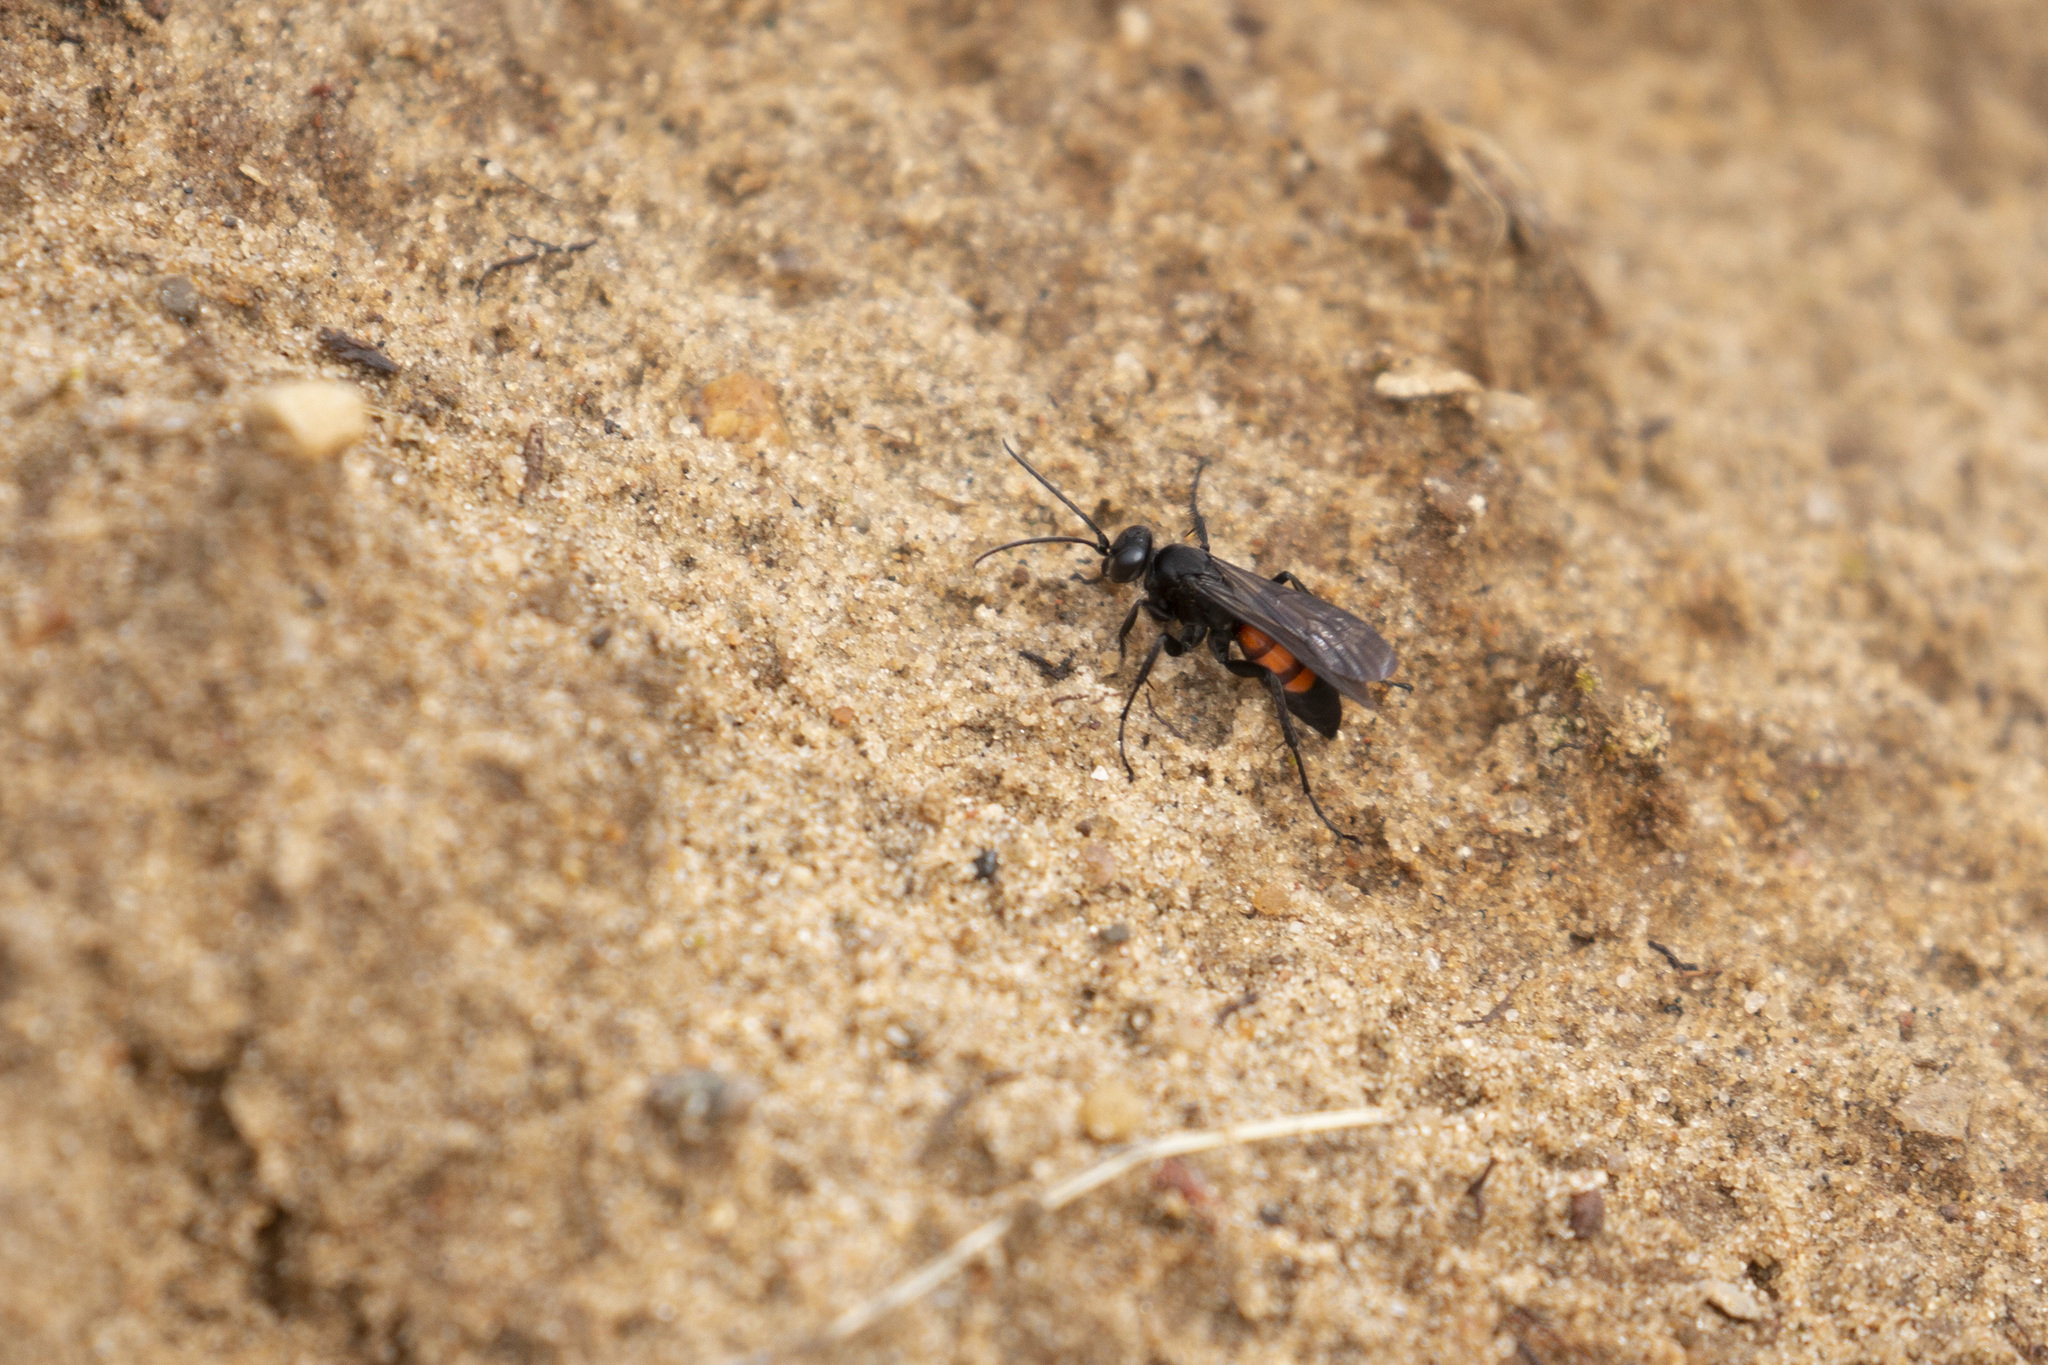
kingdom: Animalia
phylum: Arthropoda
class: Insecta
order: Hymenoptera
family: Pompilidae
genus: Anoplius
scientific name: Anoplius viaticus
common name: Black banded spider wasp
